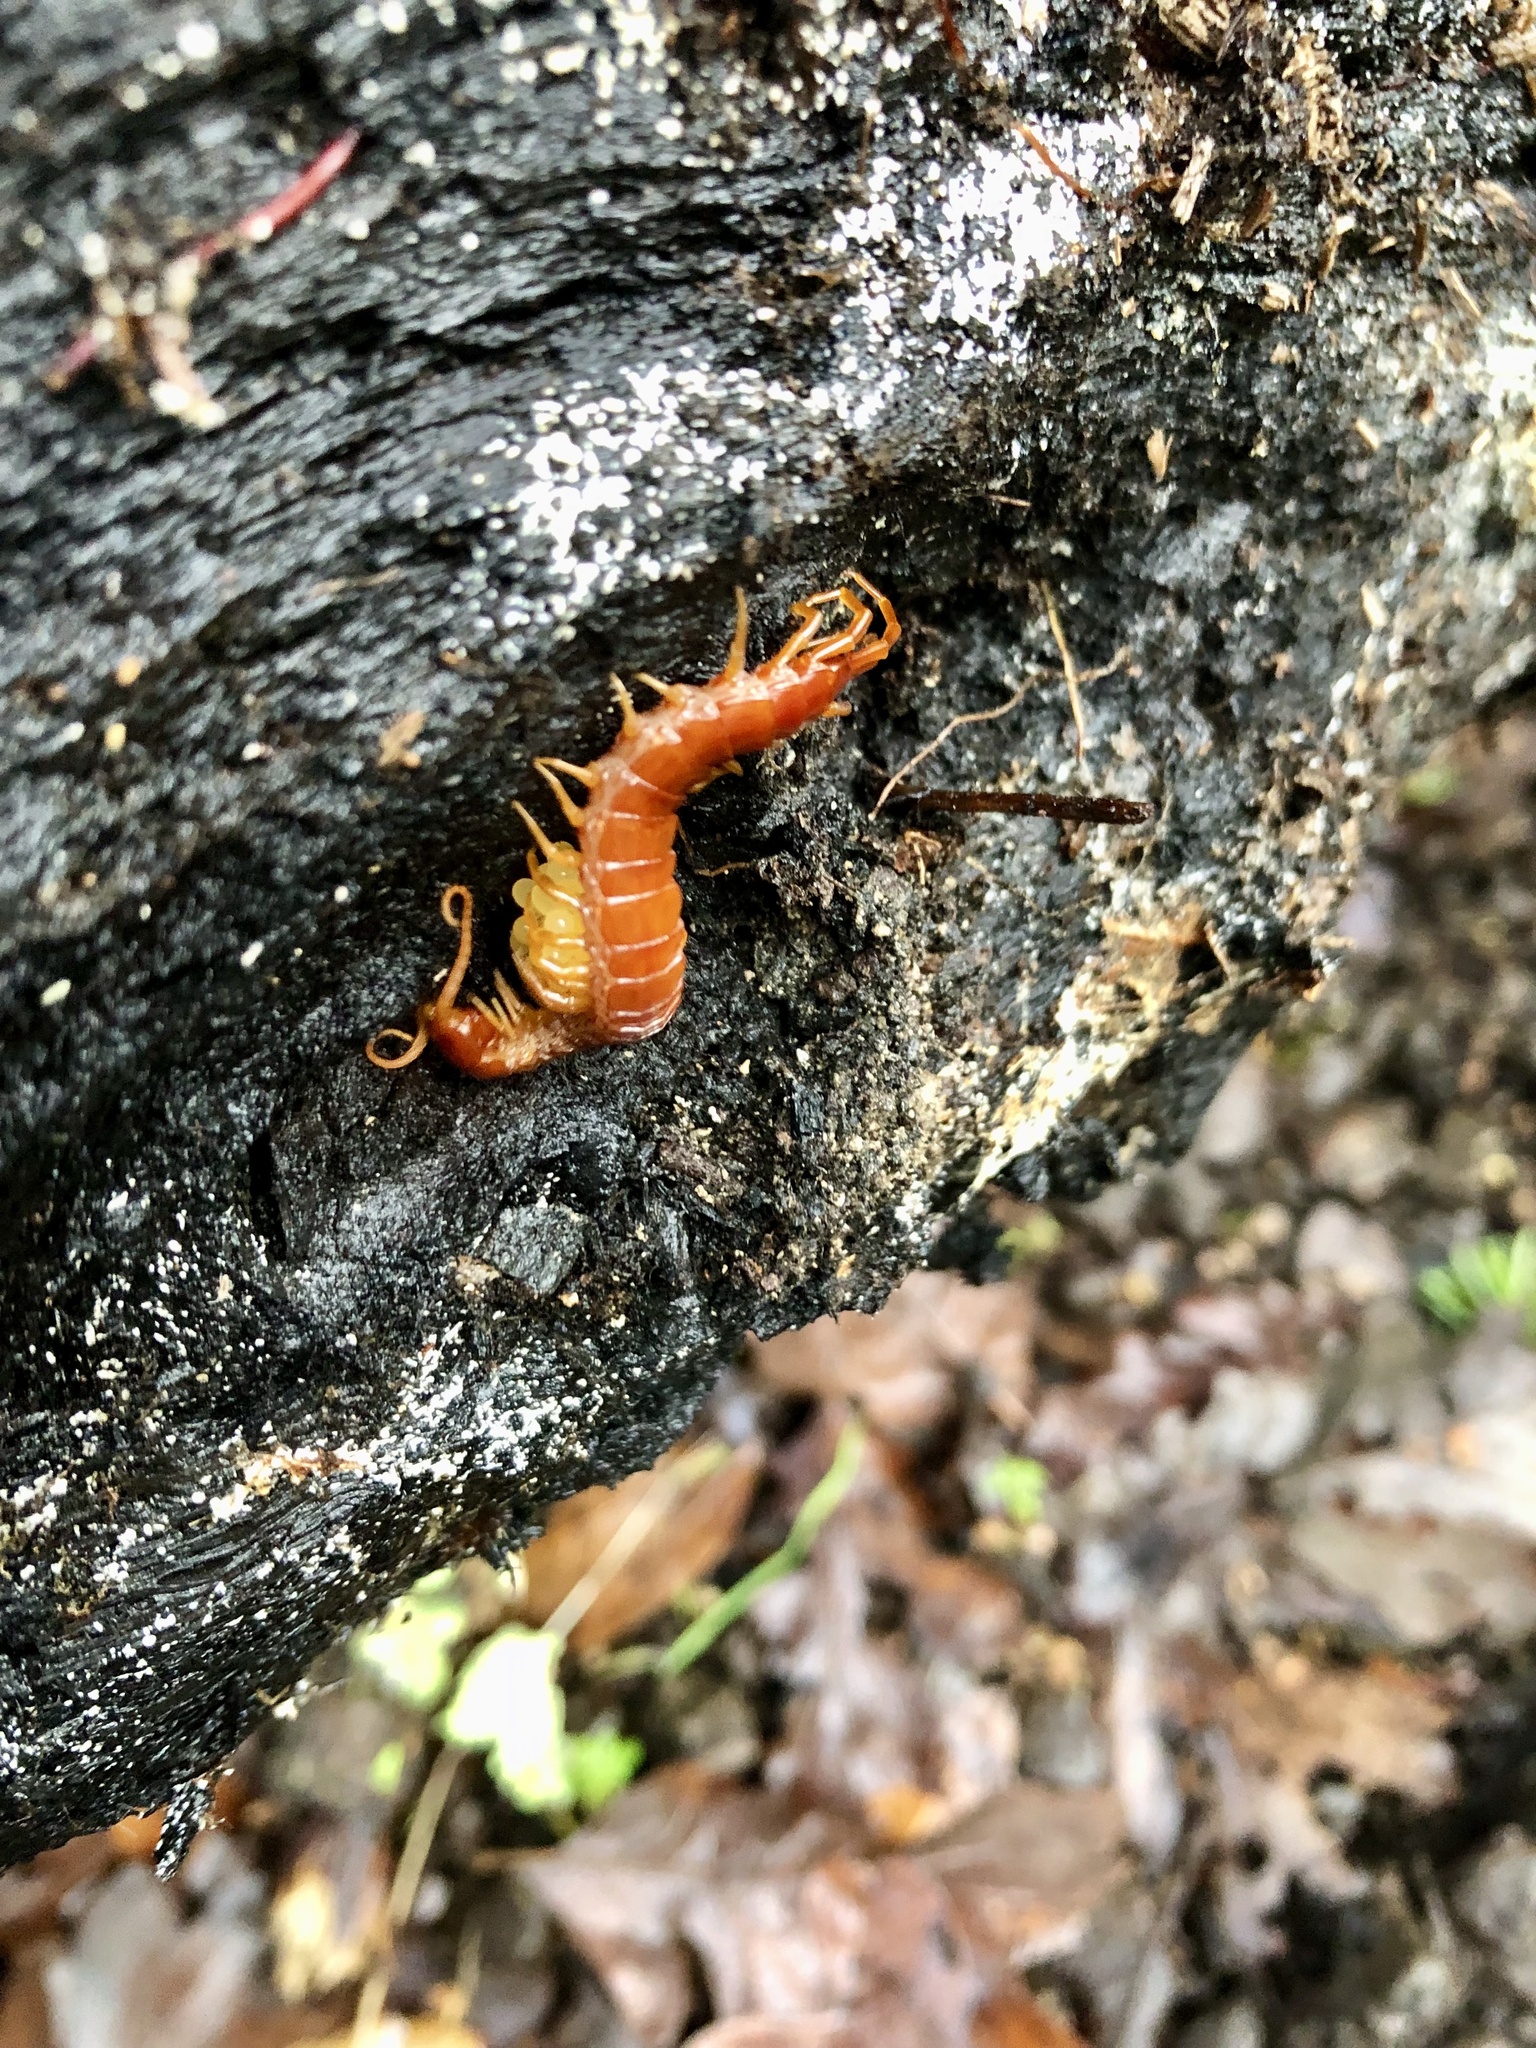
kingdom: Animalia
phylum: Arthropoda
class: Chilopoda
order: Scolopendromorpha
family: Scolopocryptopidae
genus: Scolopocryptops
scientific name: Scolopocryptops spinicaudus
